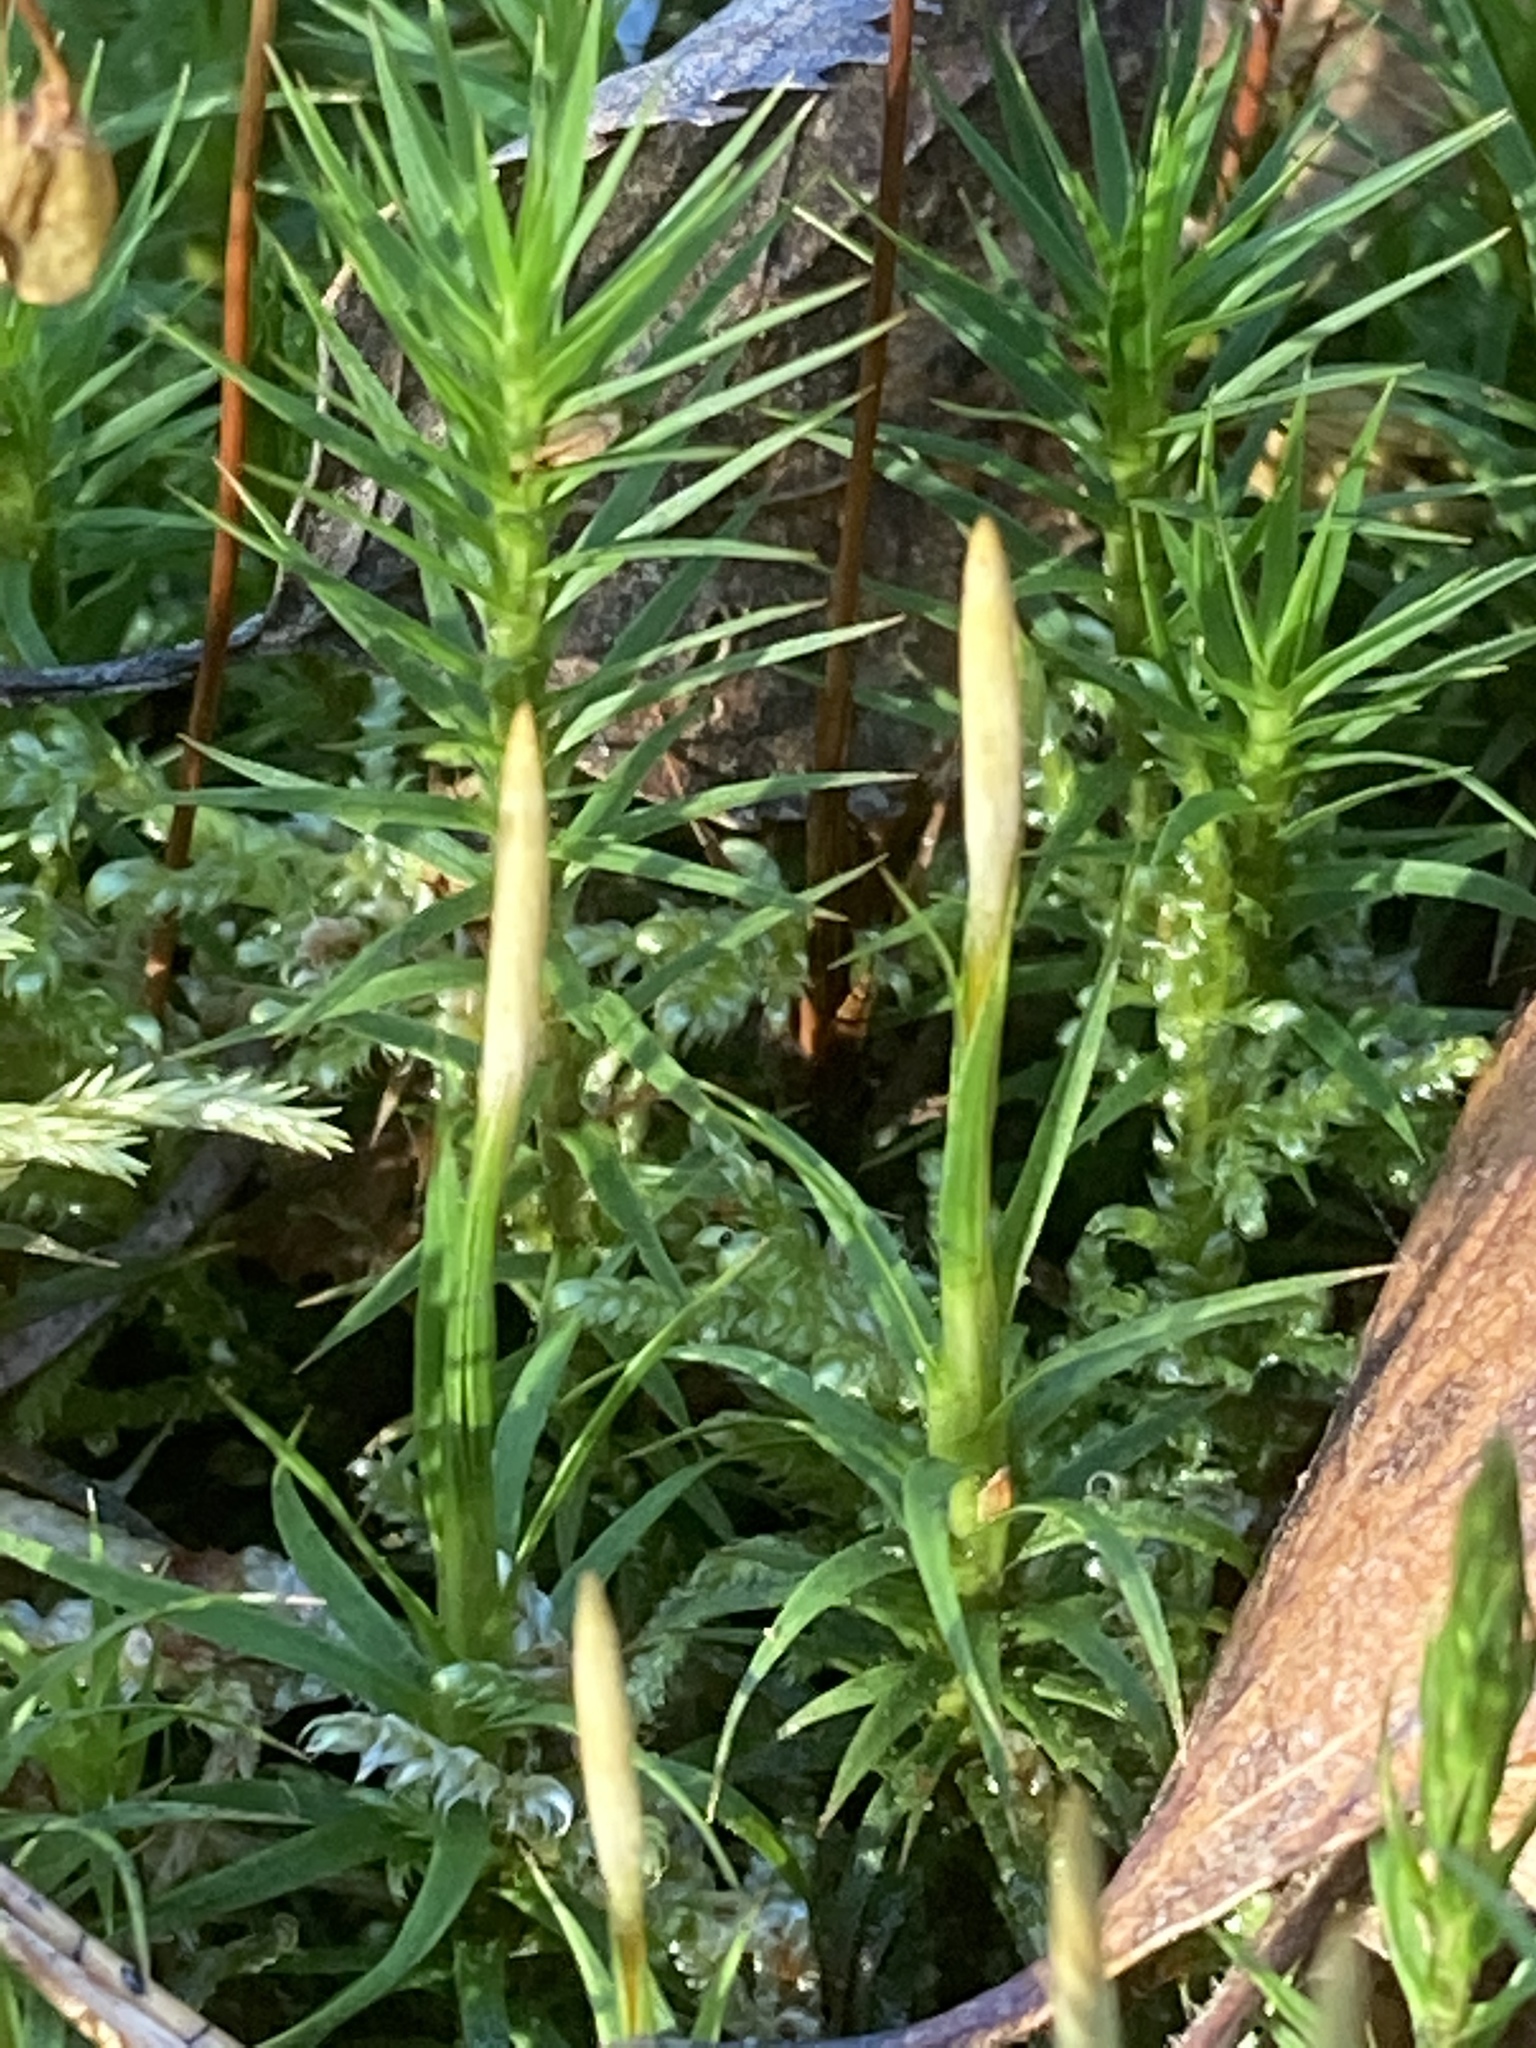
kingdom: Plantae
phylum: Bryophyta
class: Polytrichopsida
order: Polytrichales
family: Polytrichaceae
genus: Polytrichum
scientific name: Polytrichum formosum
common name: Bank haircap moss
